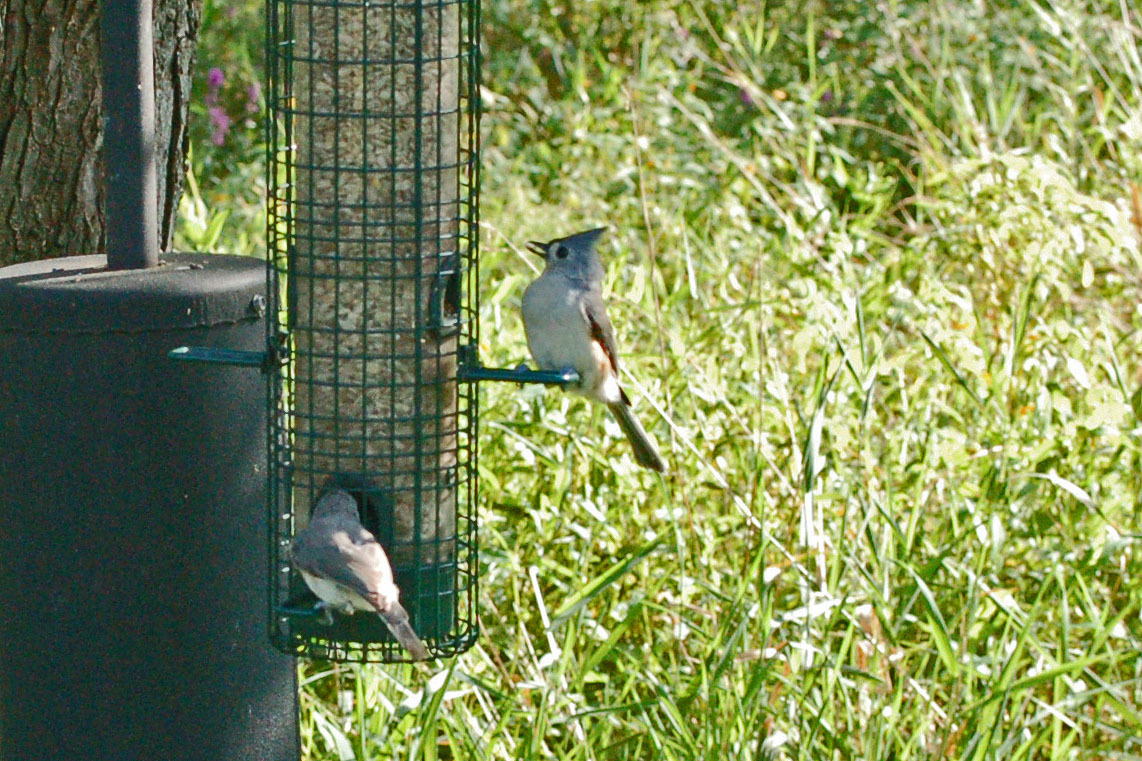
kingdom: Animalia
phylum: Chordata
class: Aves
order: Passeriformes
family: Paridae
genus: Baeolophus
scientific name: Baeolophus bicolor
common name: Tufted titmouse
